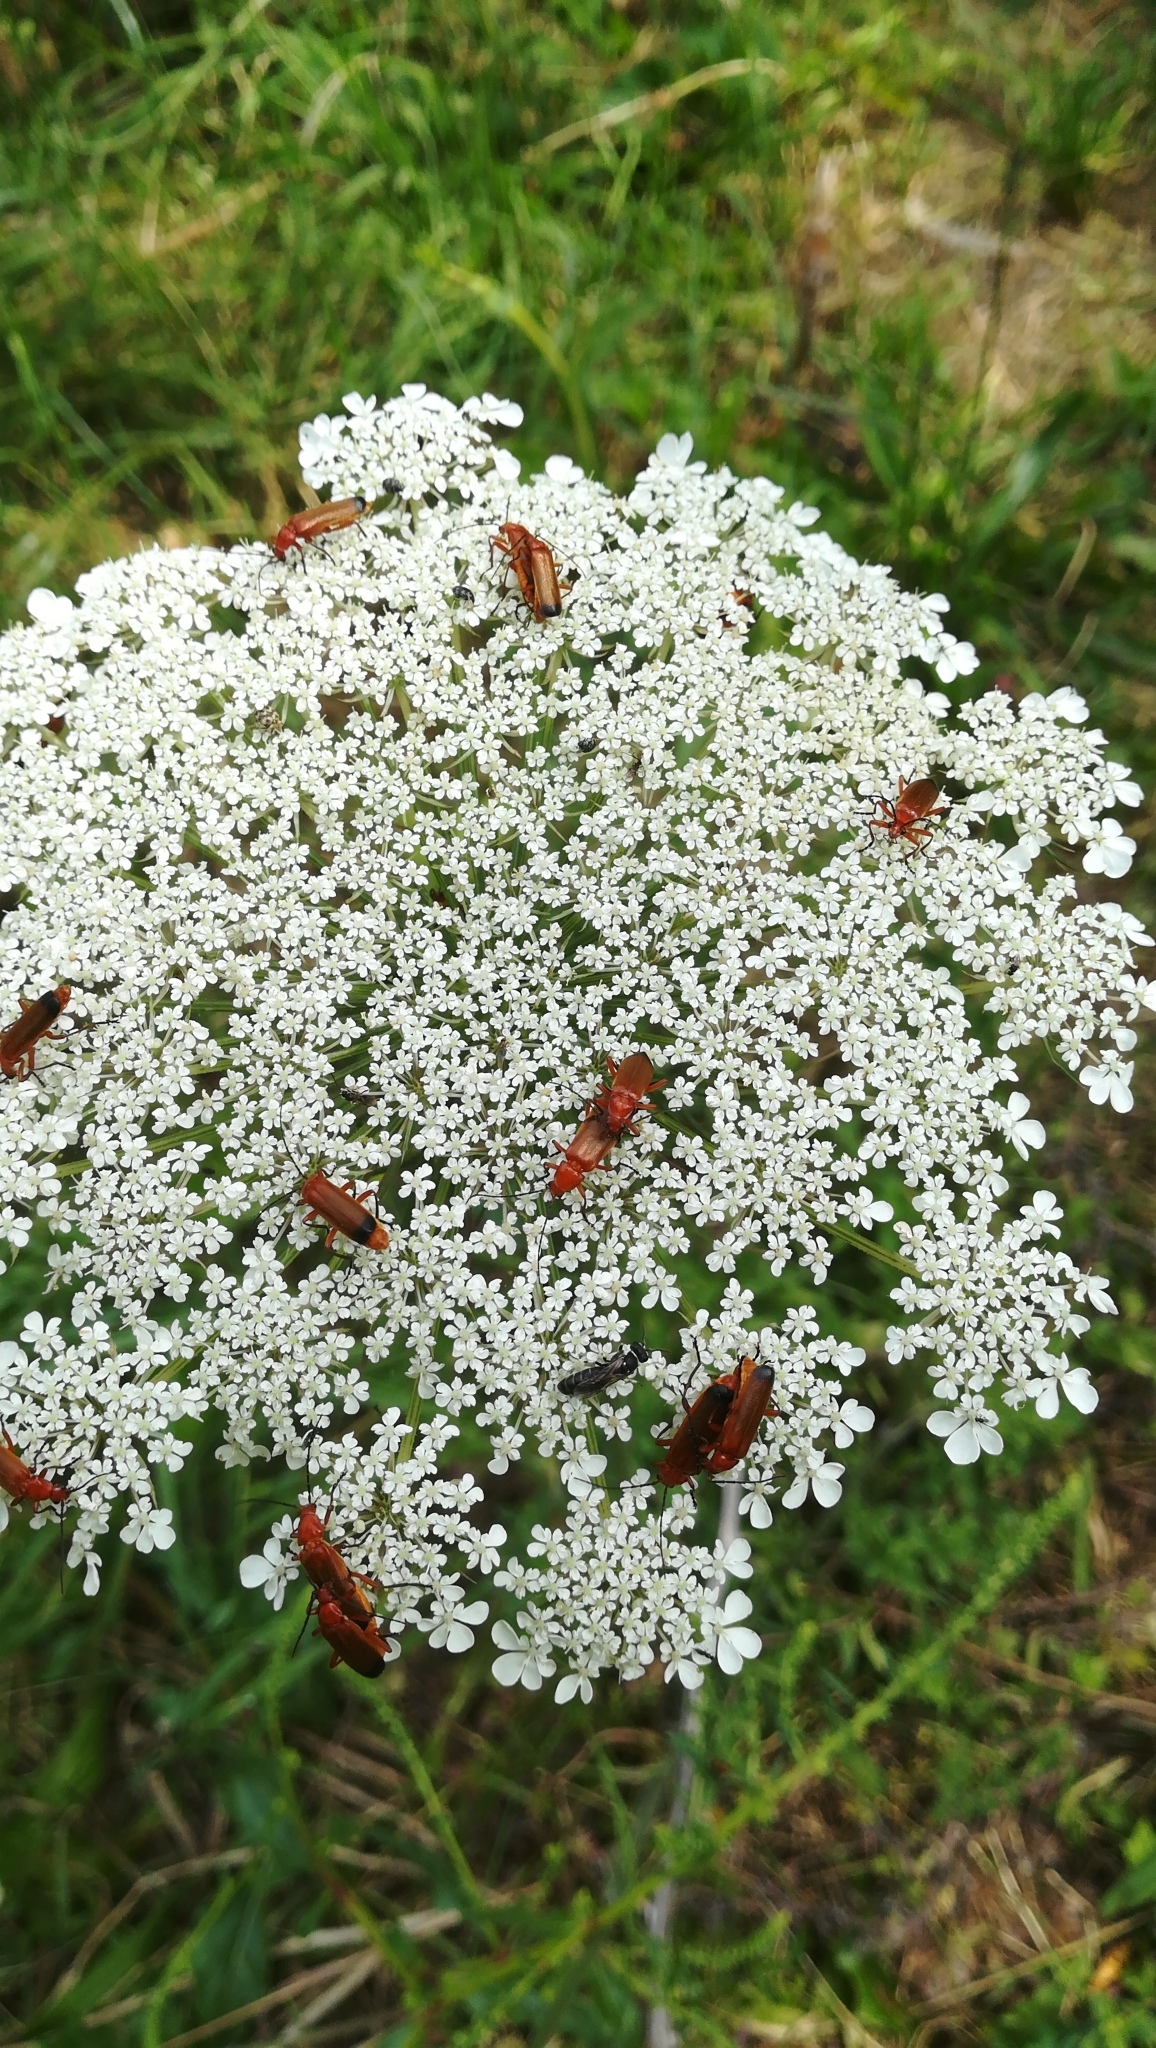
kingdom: Animalia
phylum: Arthropoda
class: Insecta
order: Coleoptera
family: Cantharidae
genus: Rhagonycha
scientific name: Rhagonycha fulva
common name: Common red soldier beetle
